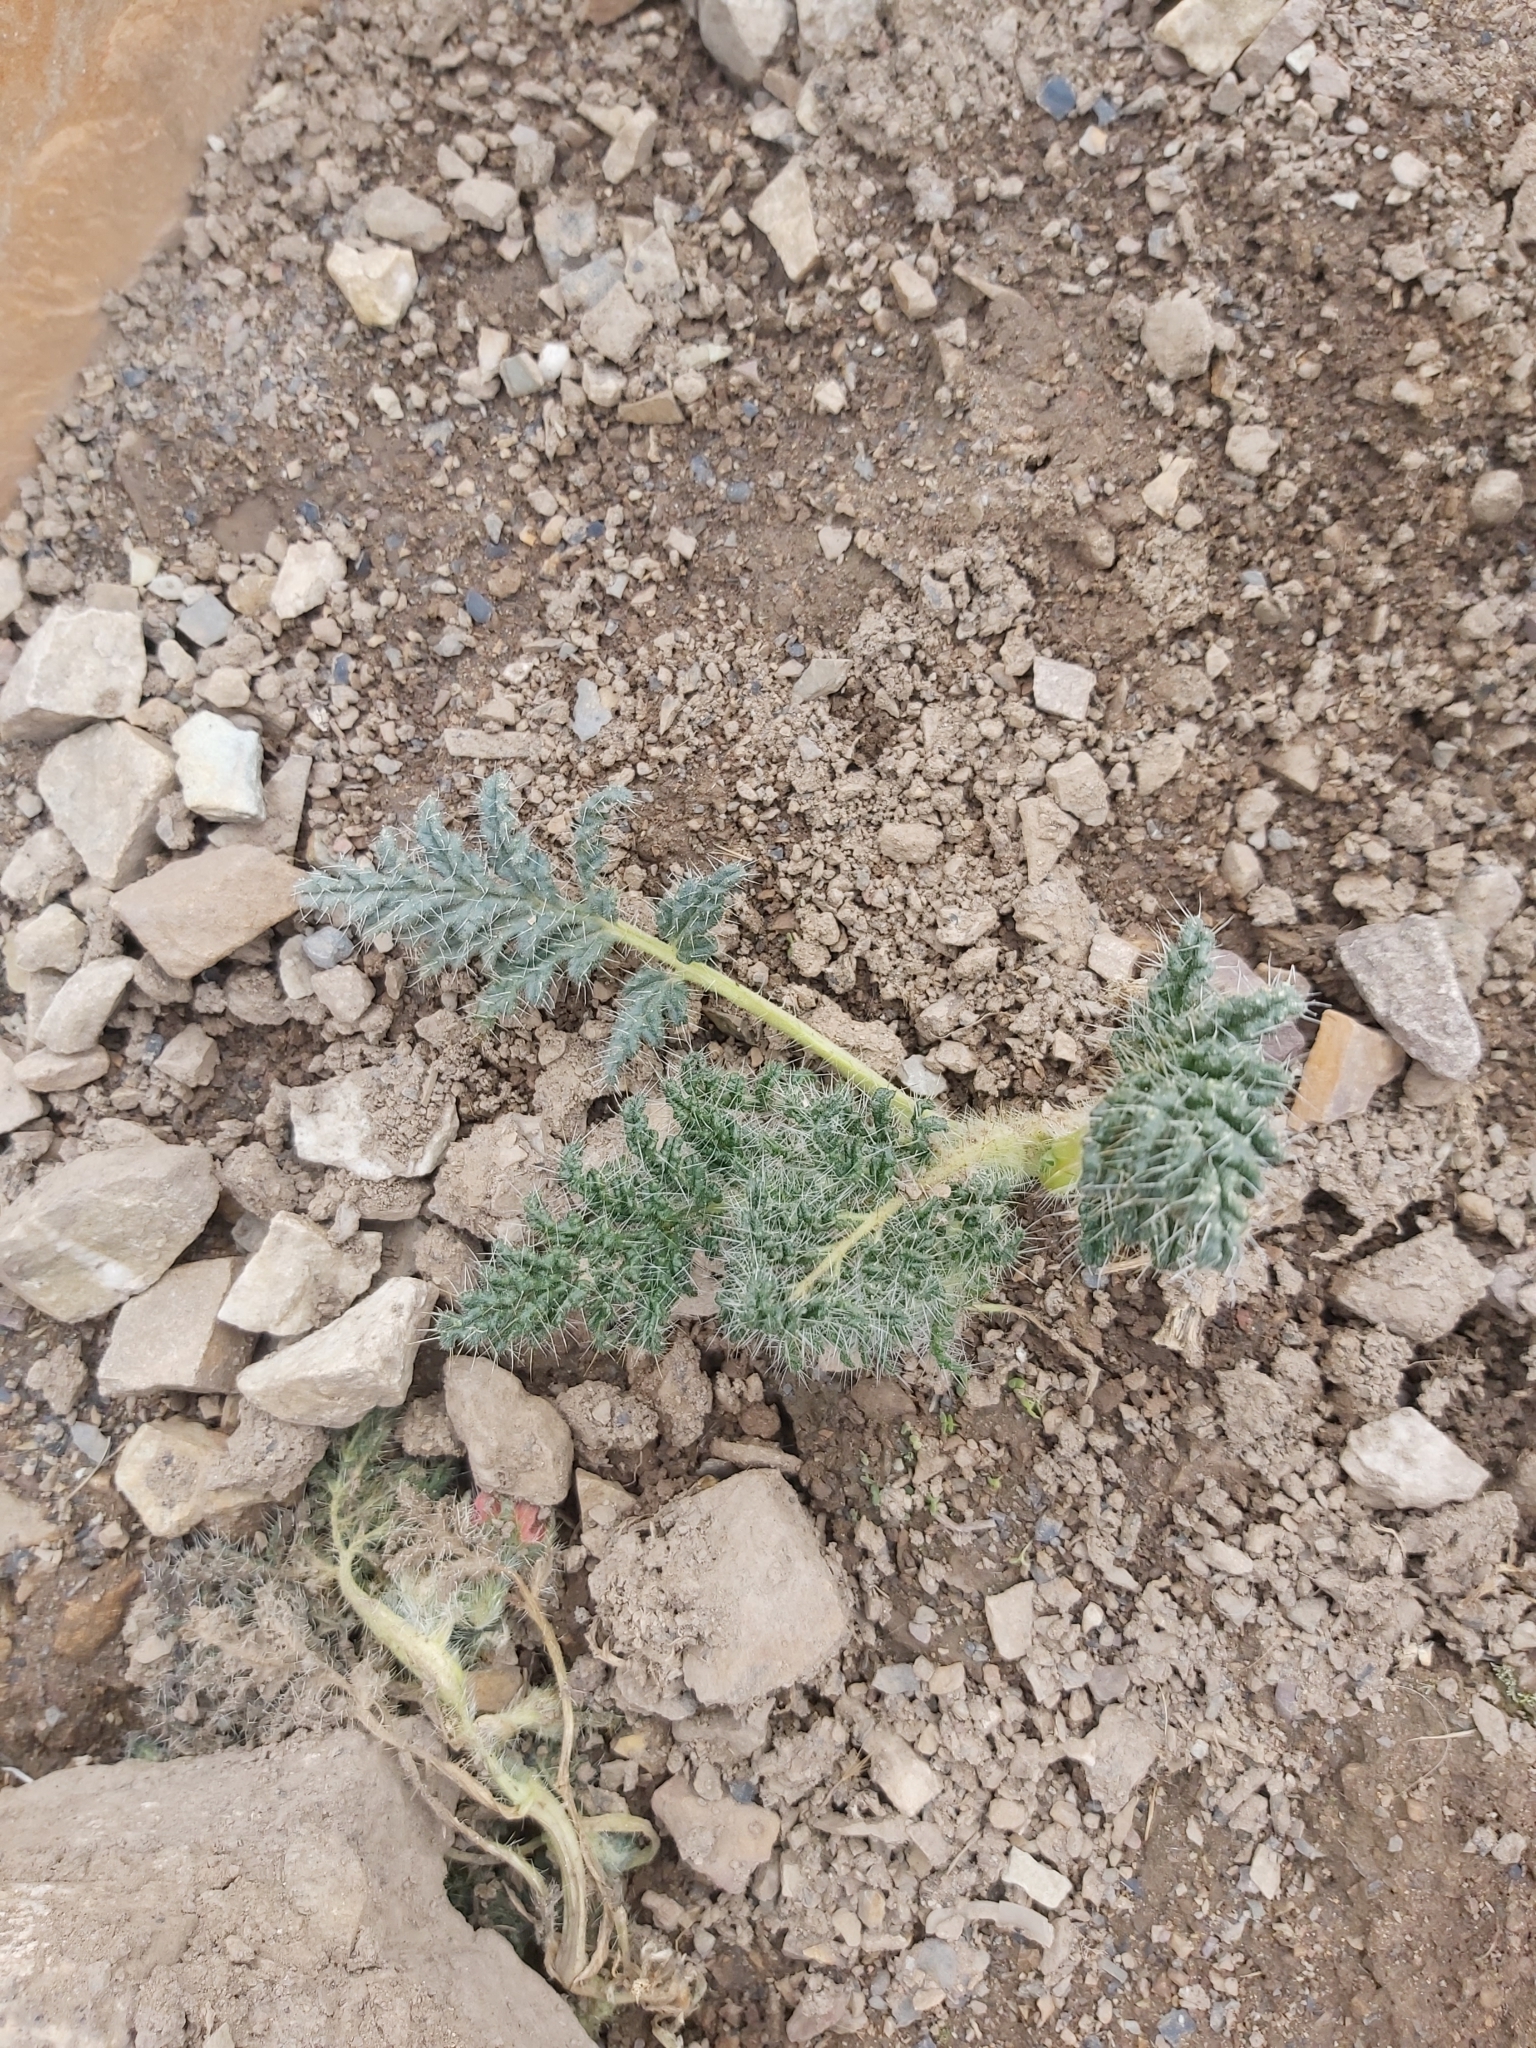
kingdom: Plantae
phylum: Tracheophyta
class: Magnoliopsida
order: Cornales
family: Loasaceae
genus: Caiophora
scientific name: Caiophora rosulata
